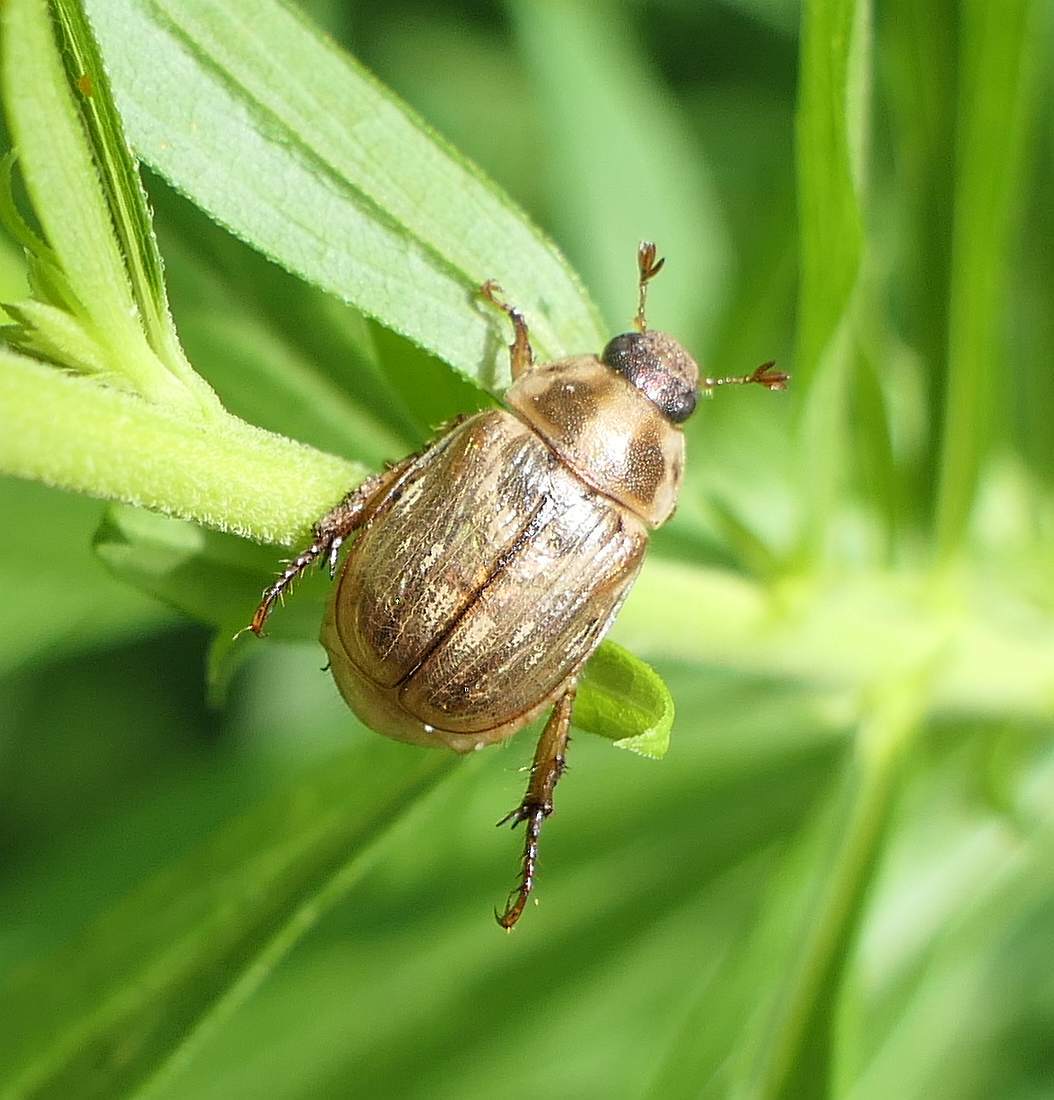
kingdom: Animalia
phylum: Arthropoda
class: Insecta
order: Coleoptera
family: Scarabaeidae
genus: Exomala
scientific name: Exomala orientalis
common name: Oriental beetle
